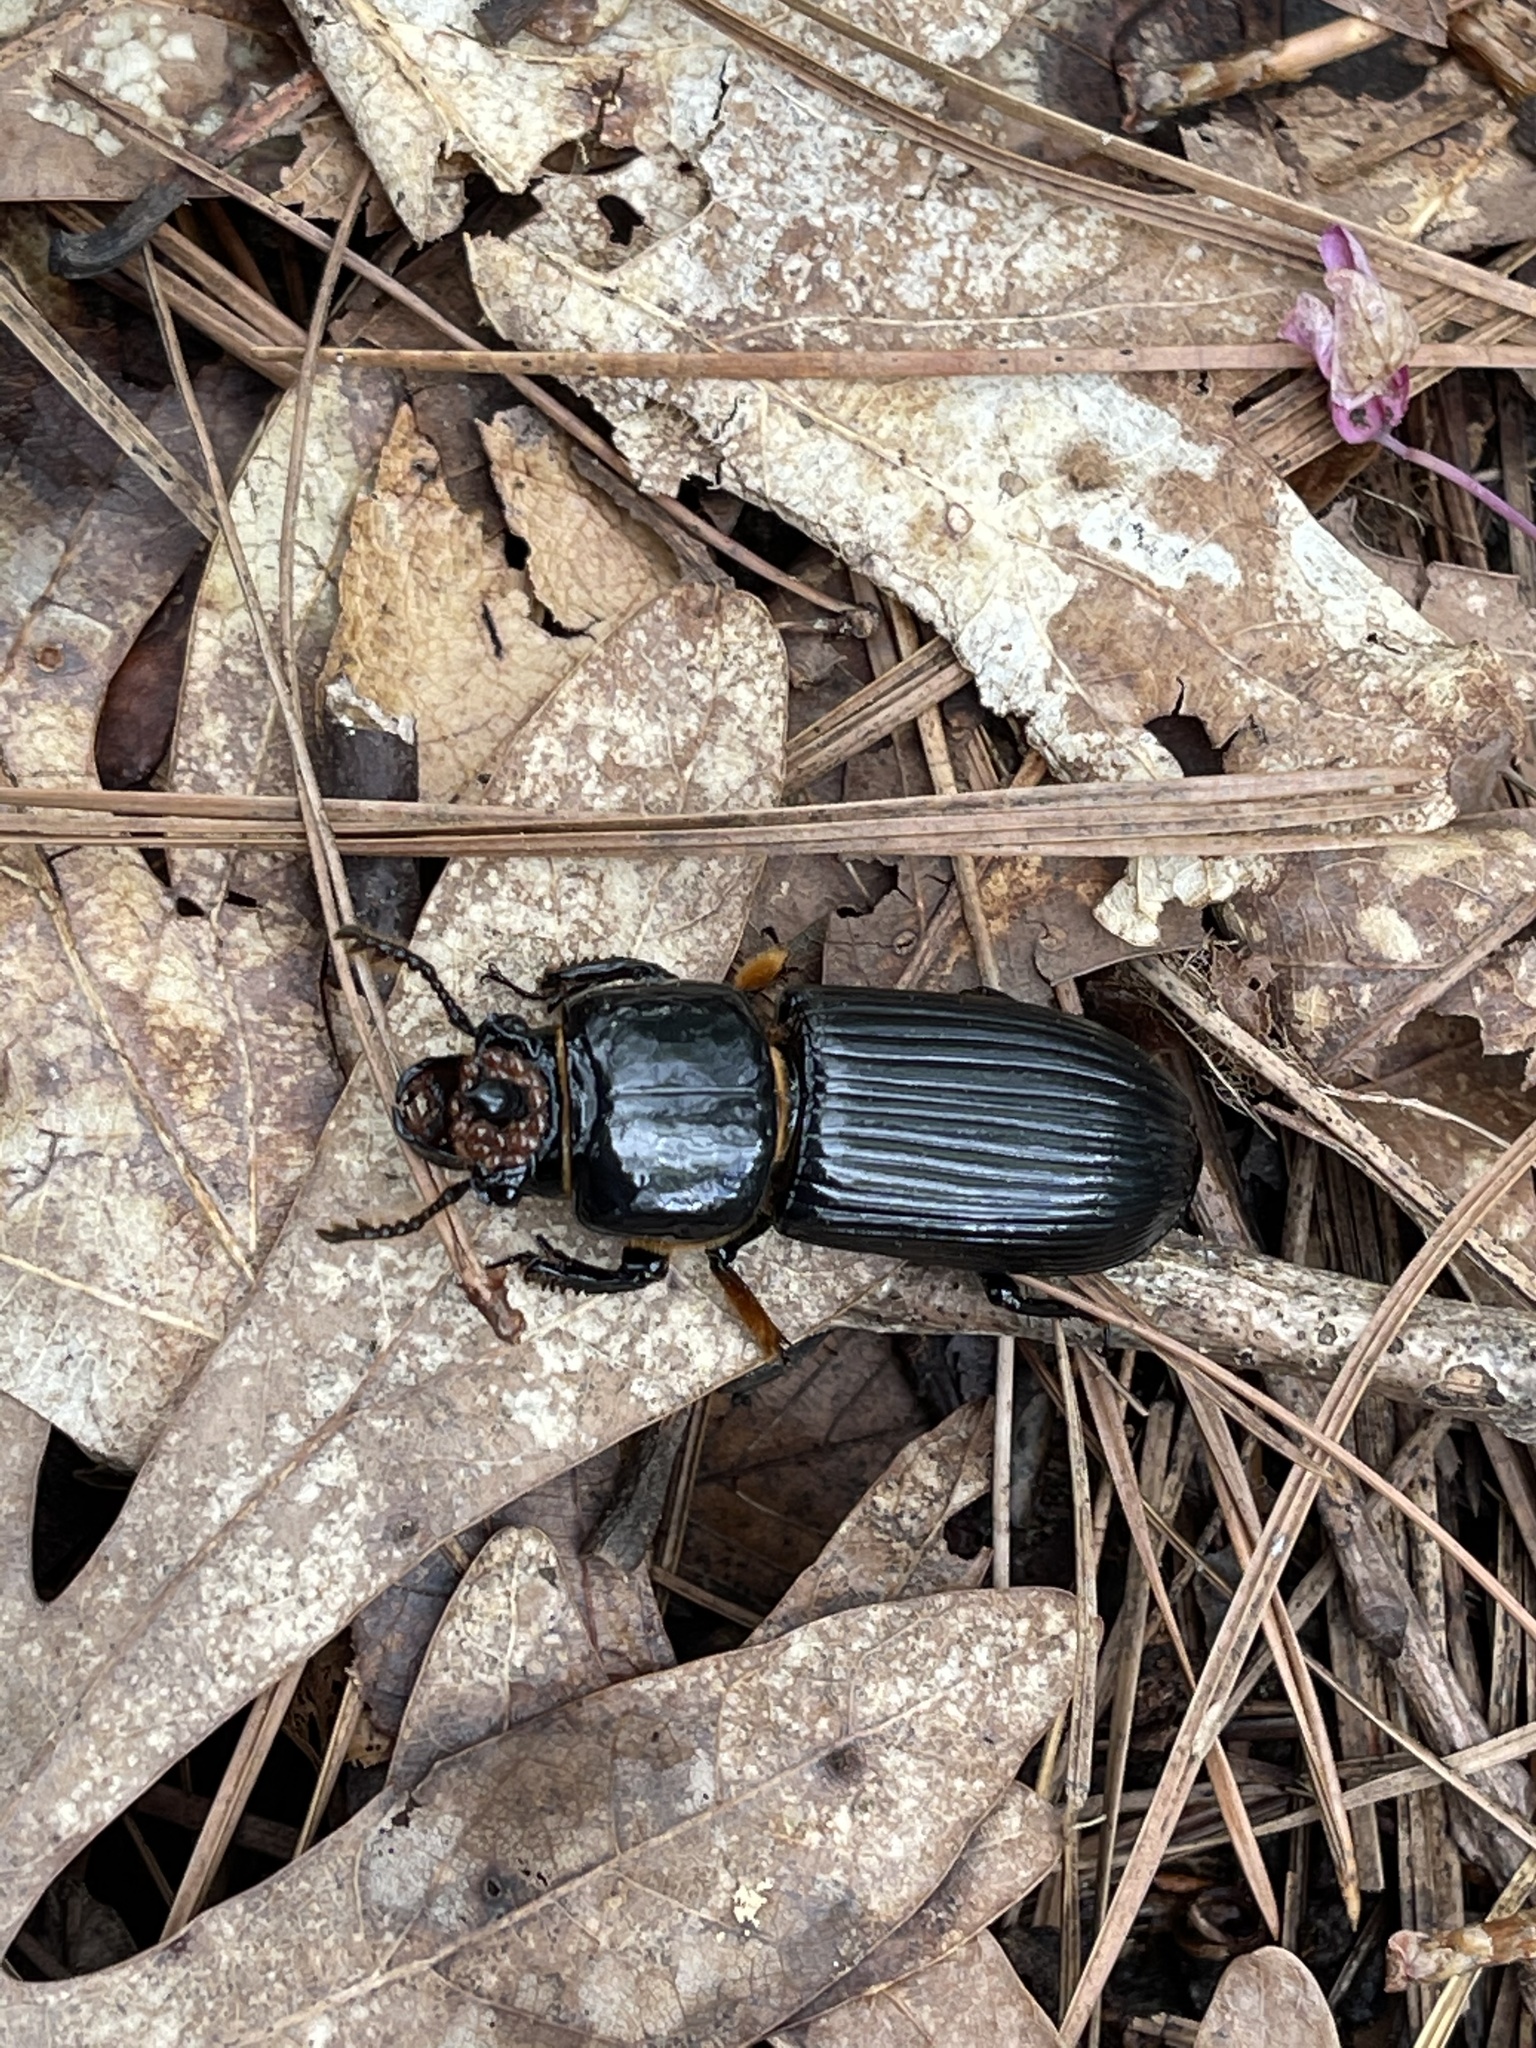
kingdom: Animalia
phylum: Arthropoda
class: Insecta
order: Coleoptera
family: Passalidae
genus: Odontotaenius
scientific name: Odontotaenius disjunctus
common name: Patent leather beetle
